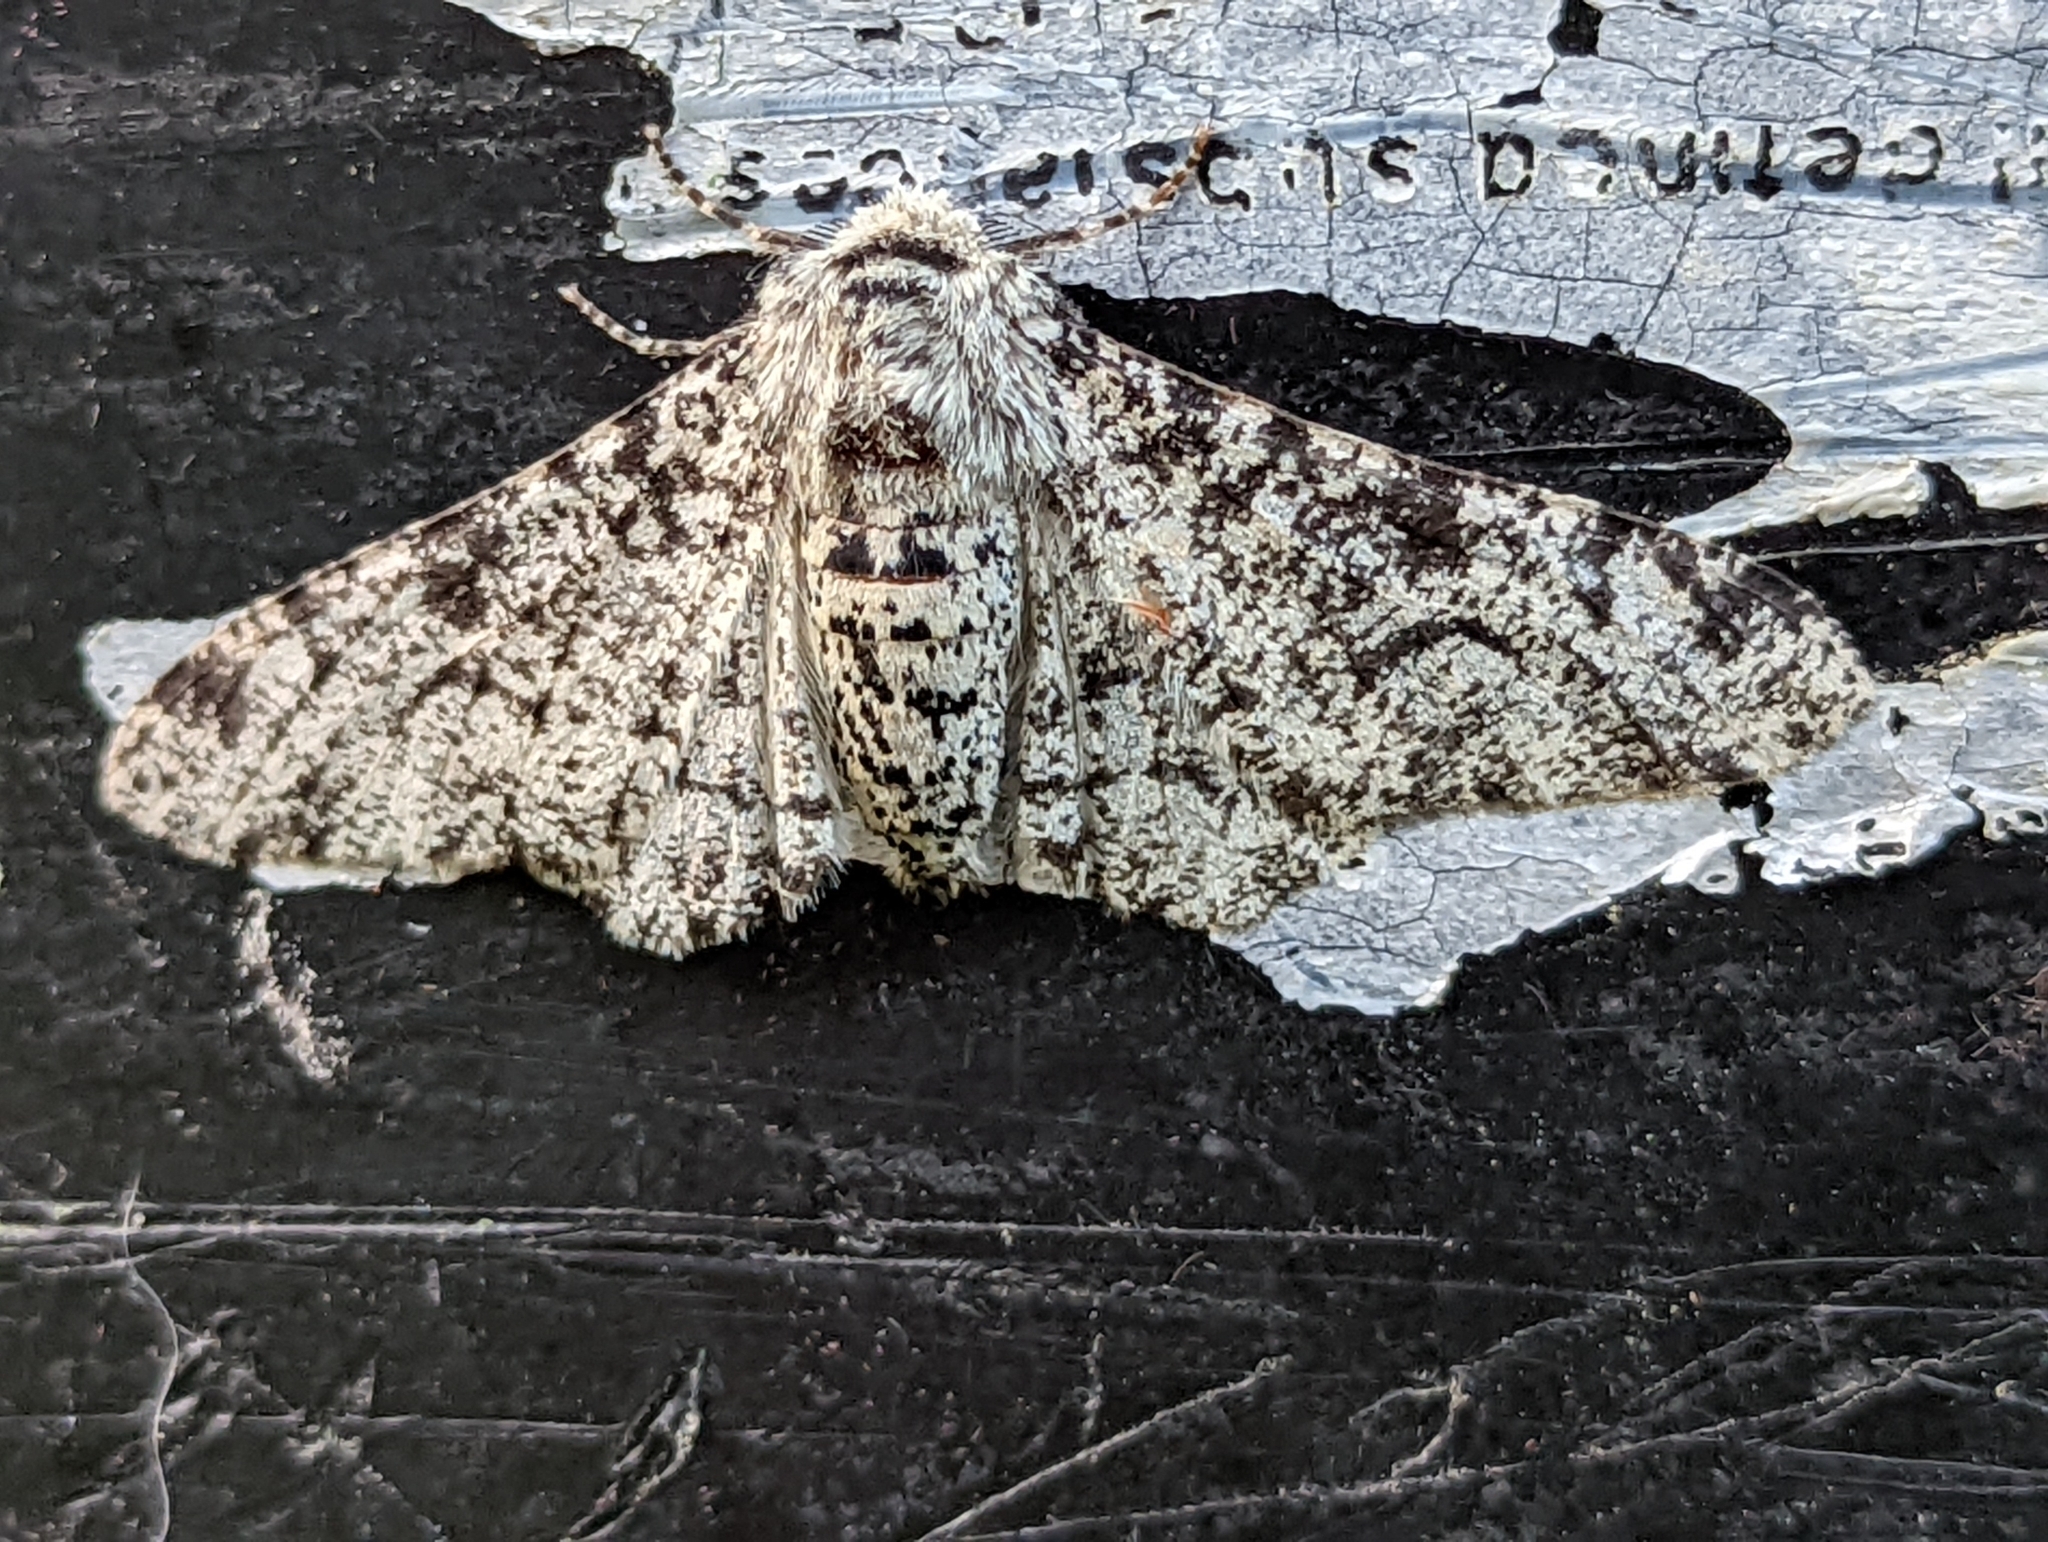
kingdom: Animalia
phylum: Arthropoda
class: Insecta
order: Lepidoptera
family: Geometridae
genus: Biston
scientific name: Biston betularia
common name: Peppered moth
